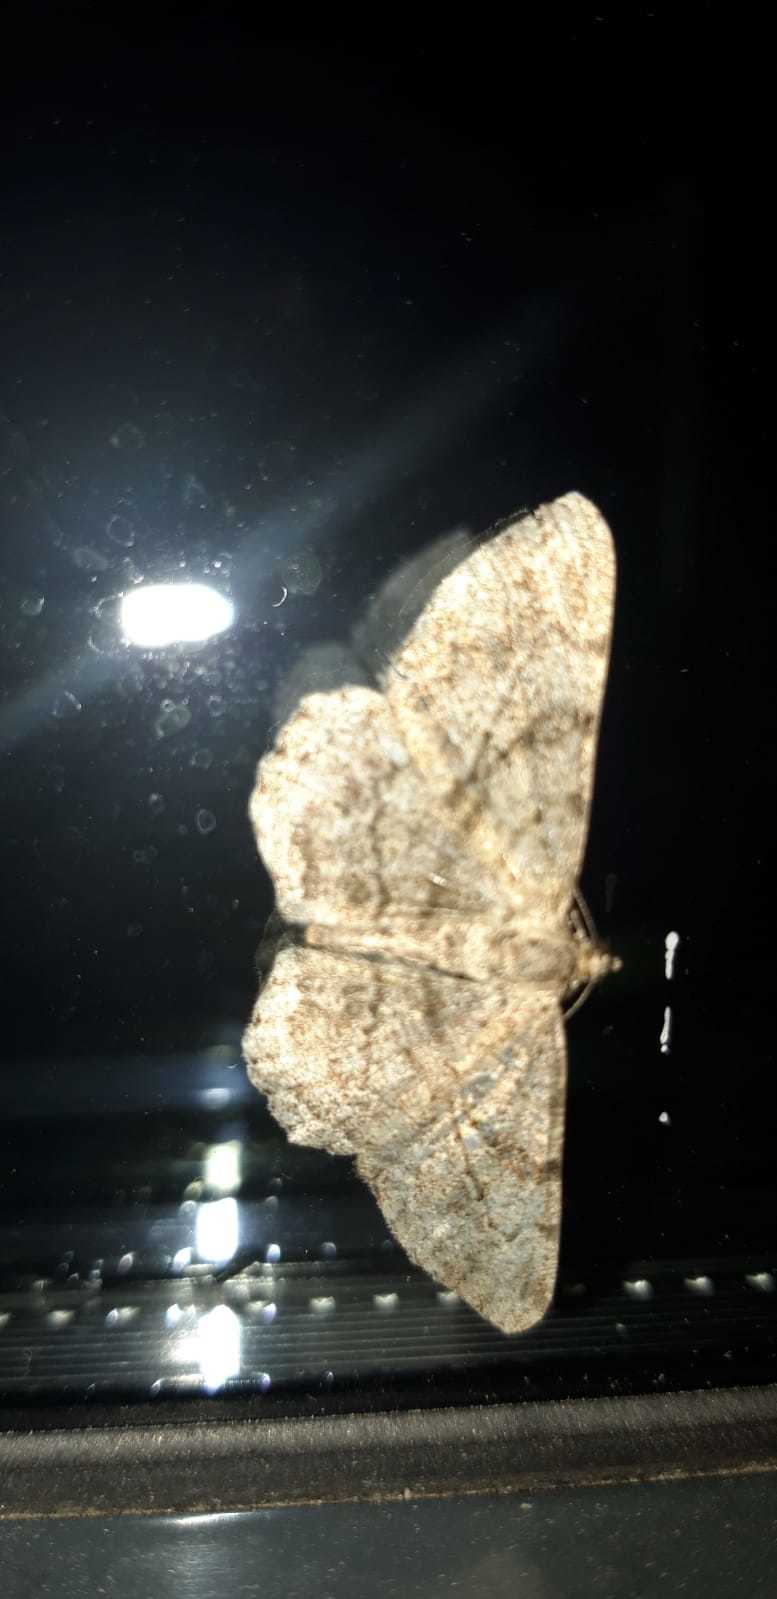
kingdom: Animalia
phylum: Arthropoda
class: Insecta
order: Lepidoptera
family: Geometridae
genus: Peribatodes
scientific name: Peribatodes rhomboidaria
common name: Willow beauty
